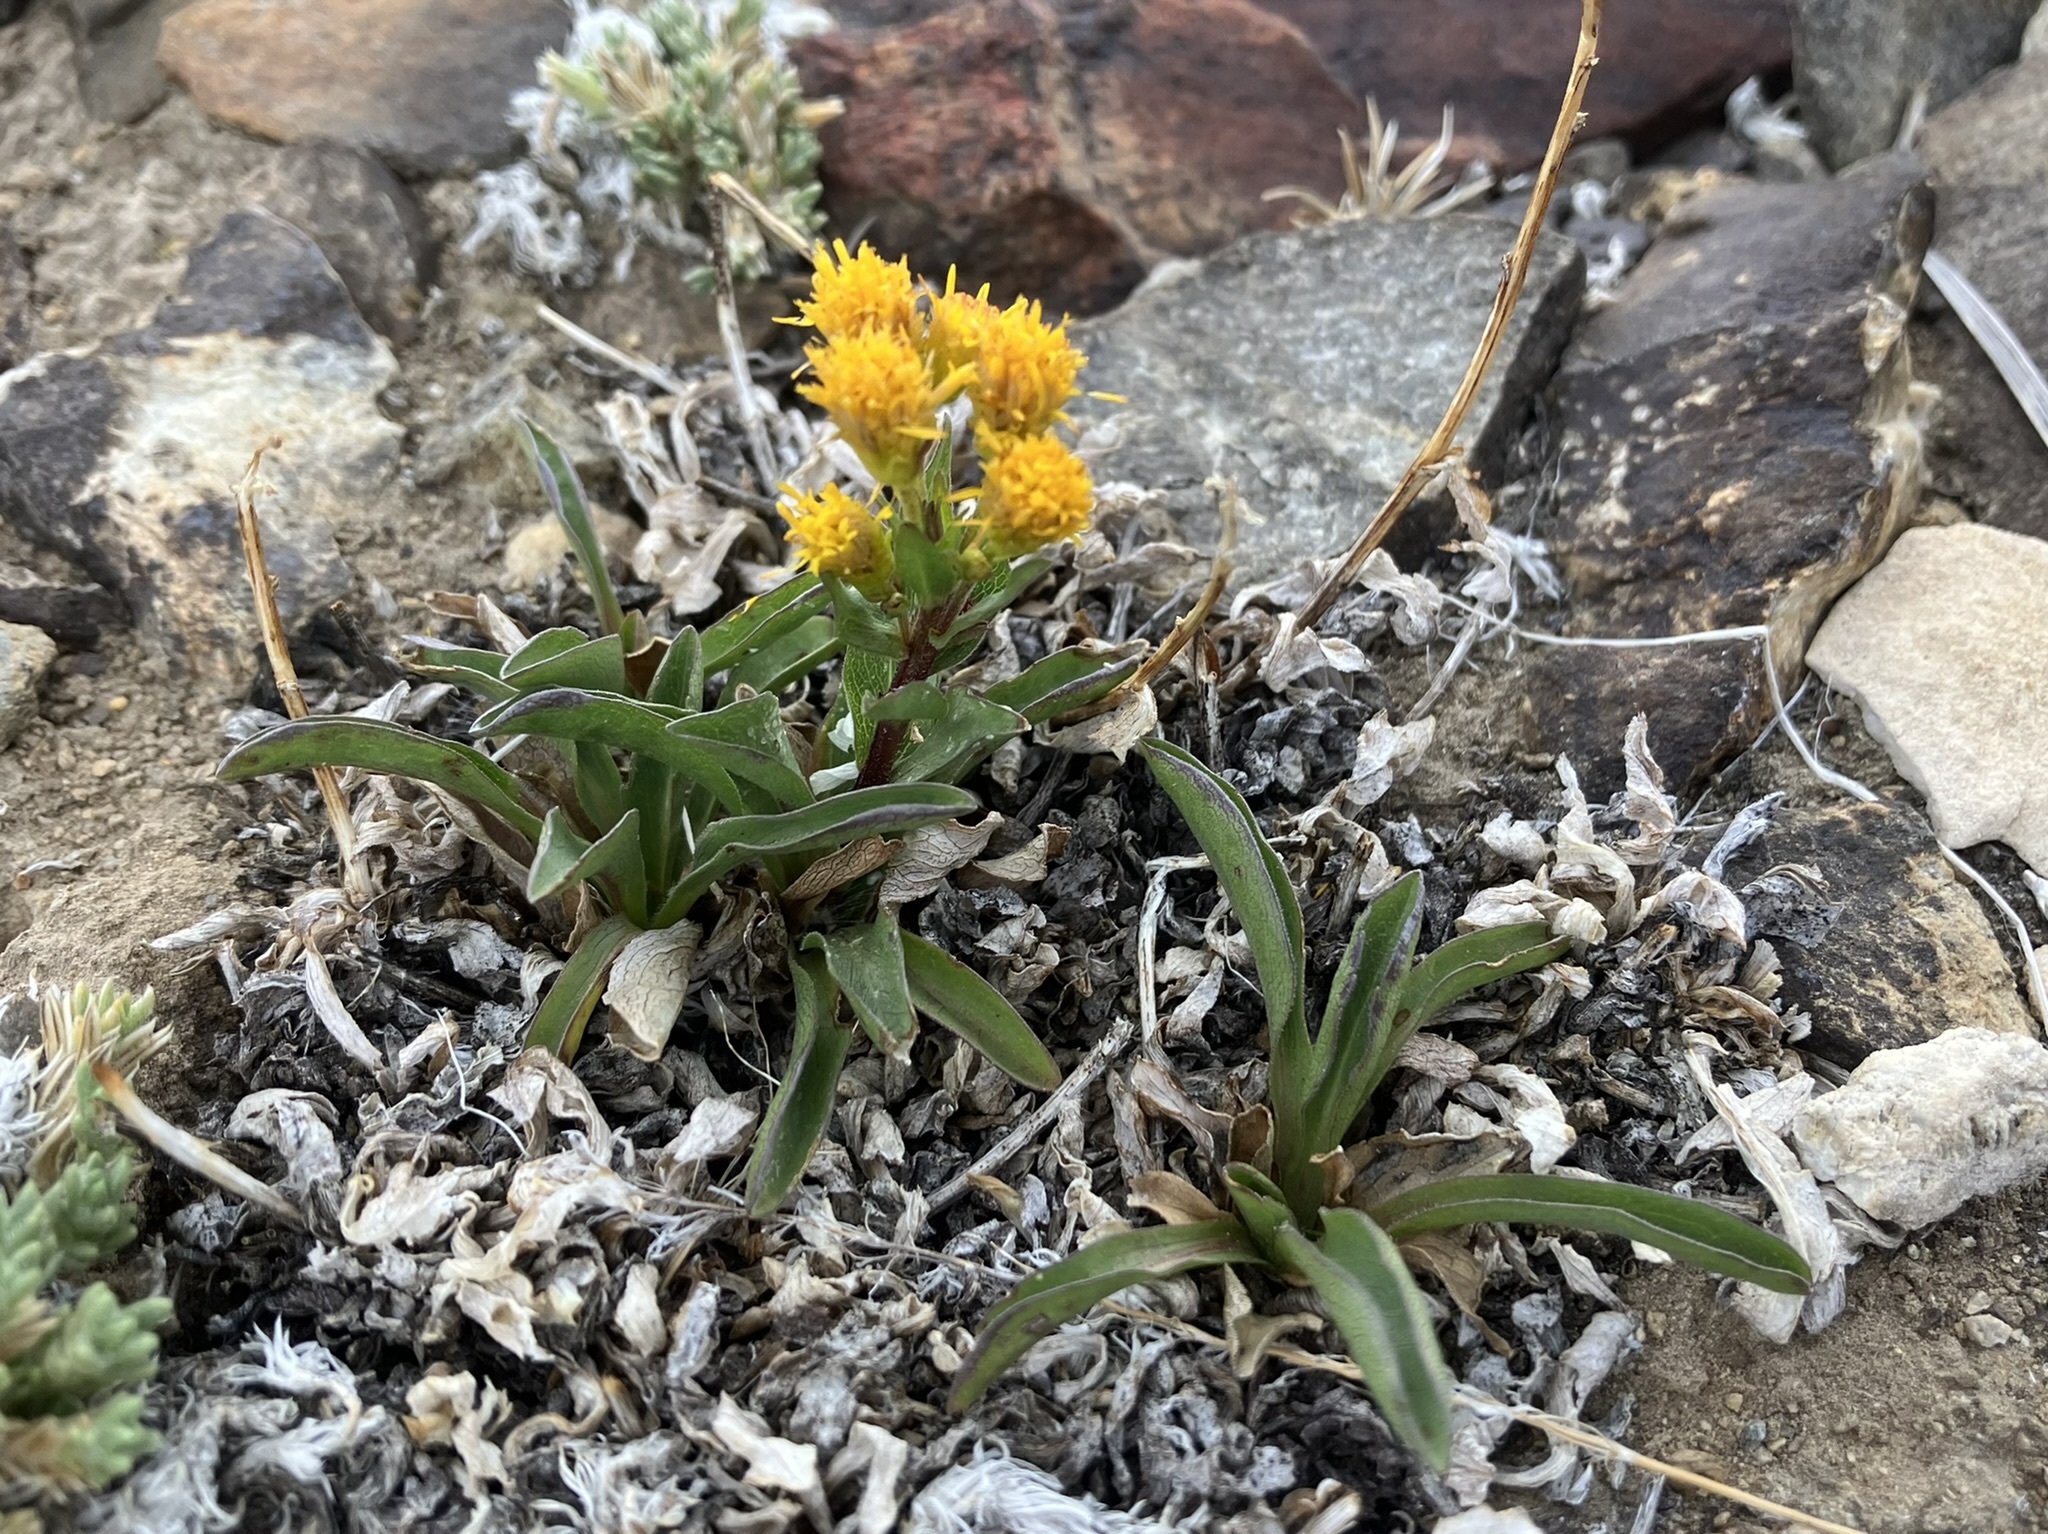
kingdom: Plantae
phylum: Tracheophyta
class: Magnoliopsida
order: Asterales
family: Asteraceae
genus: Solidago
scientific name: Solidago multiradiata
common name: Northern goldenrod
